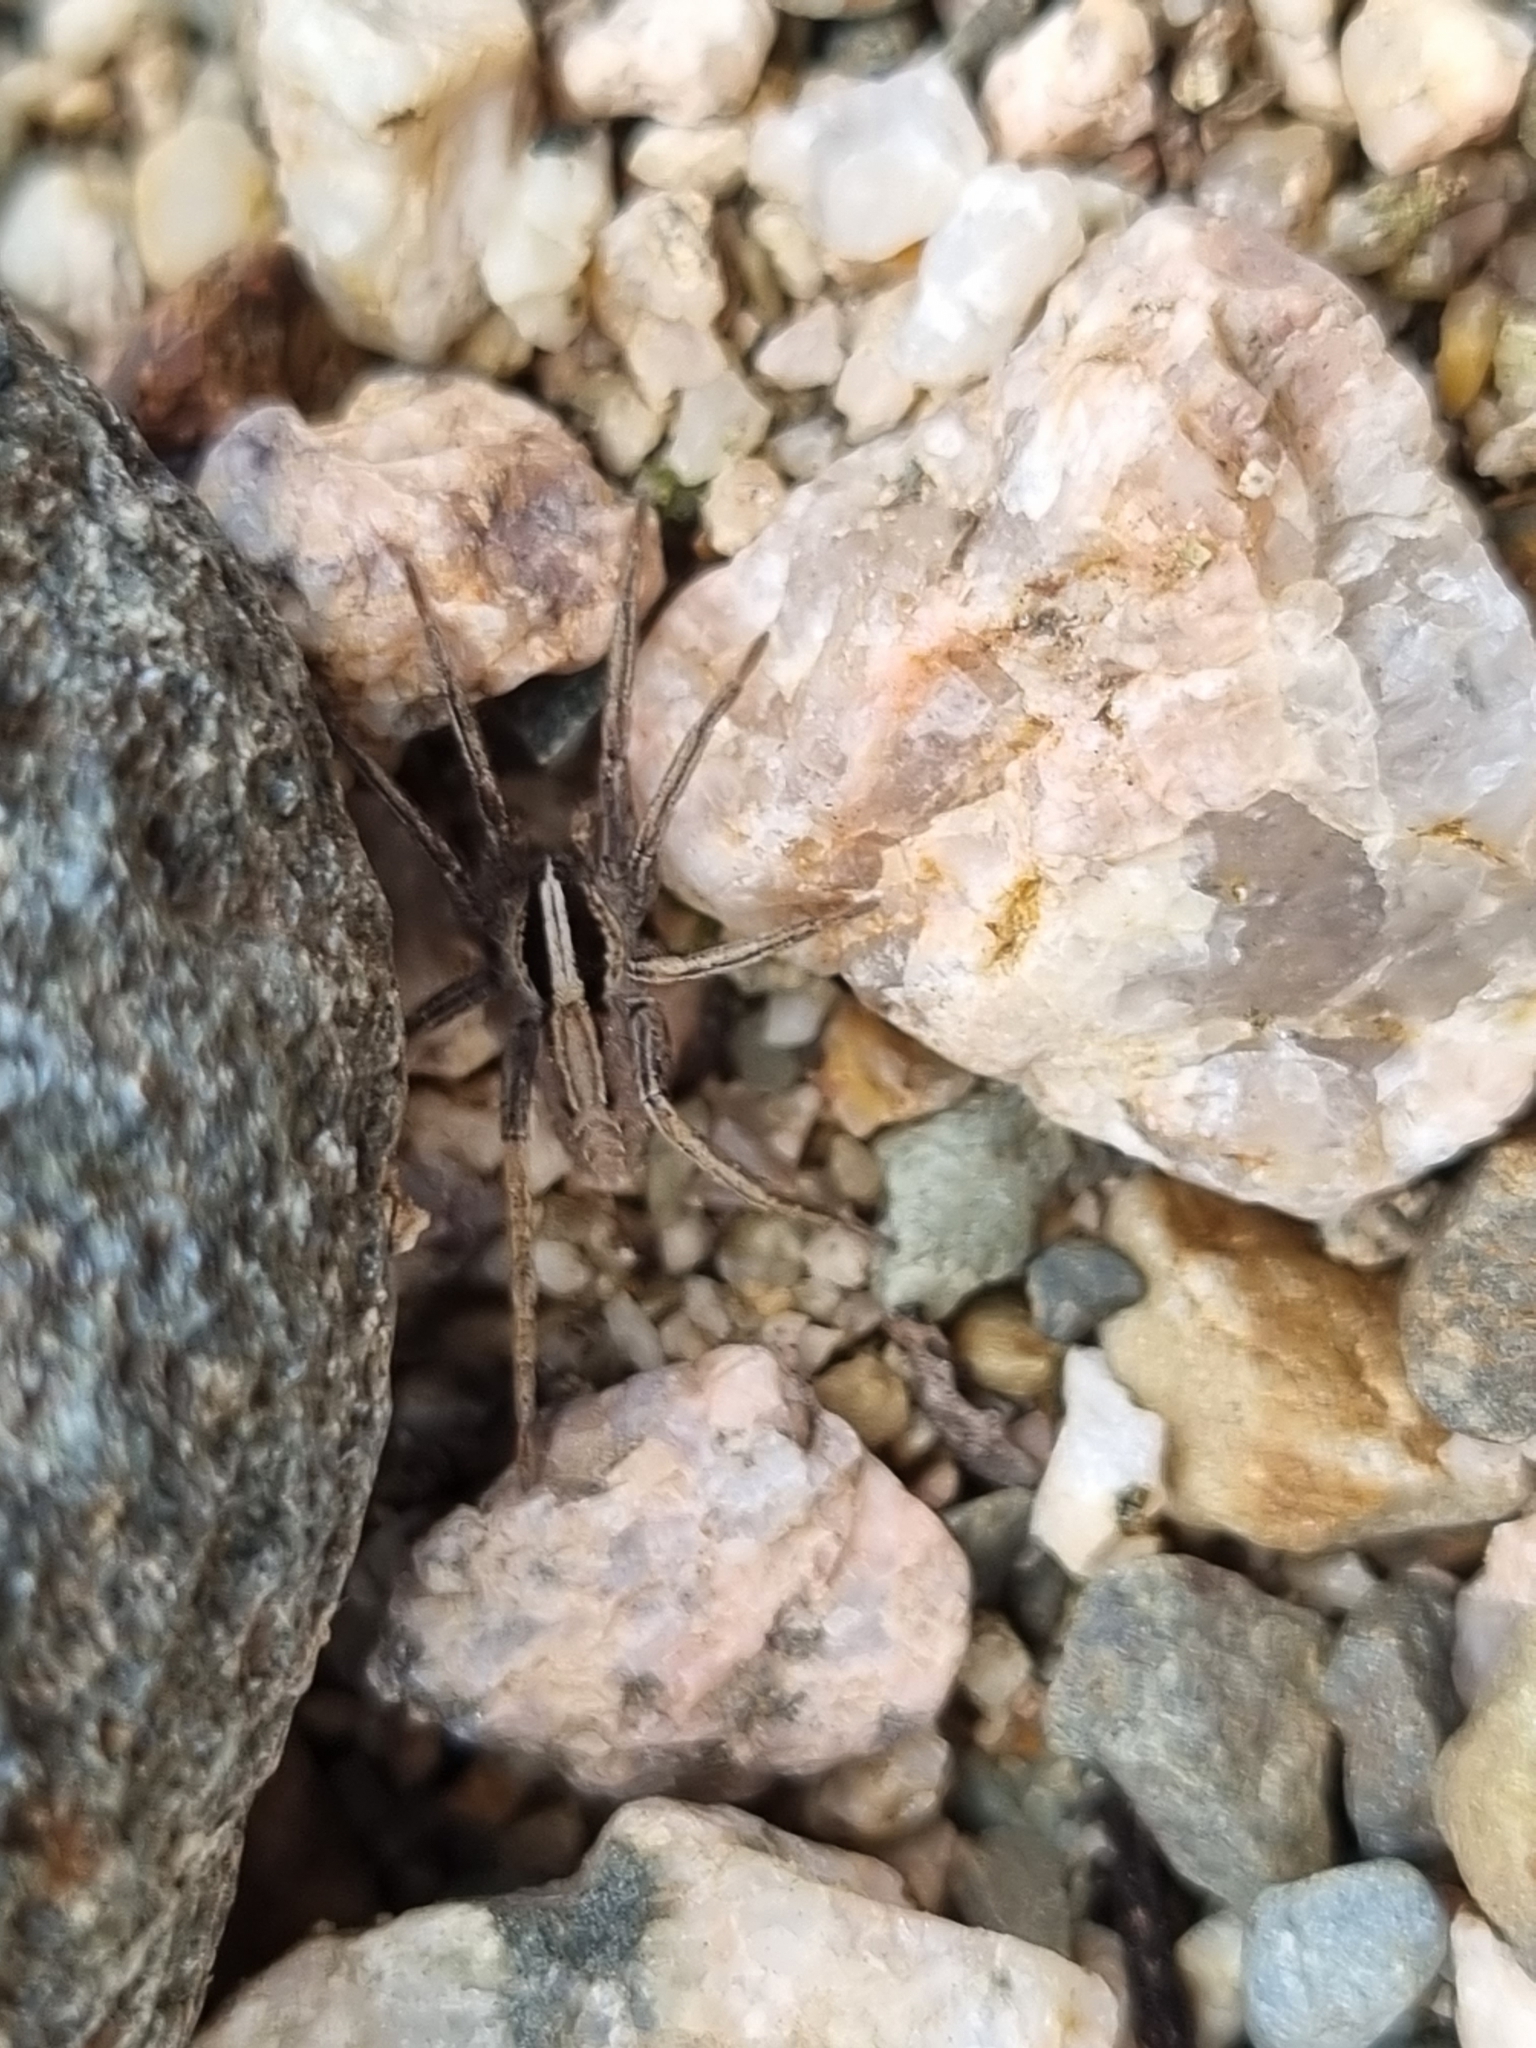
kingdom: Animalia
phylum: Arthropoda
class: Arachnida
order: Araneae
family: Xenoctenidae
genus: Odo
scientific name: Odo bruchi
